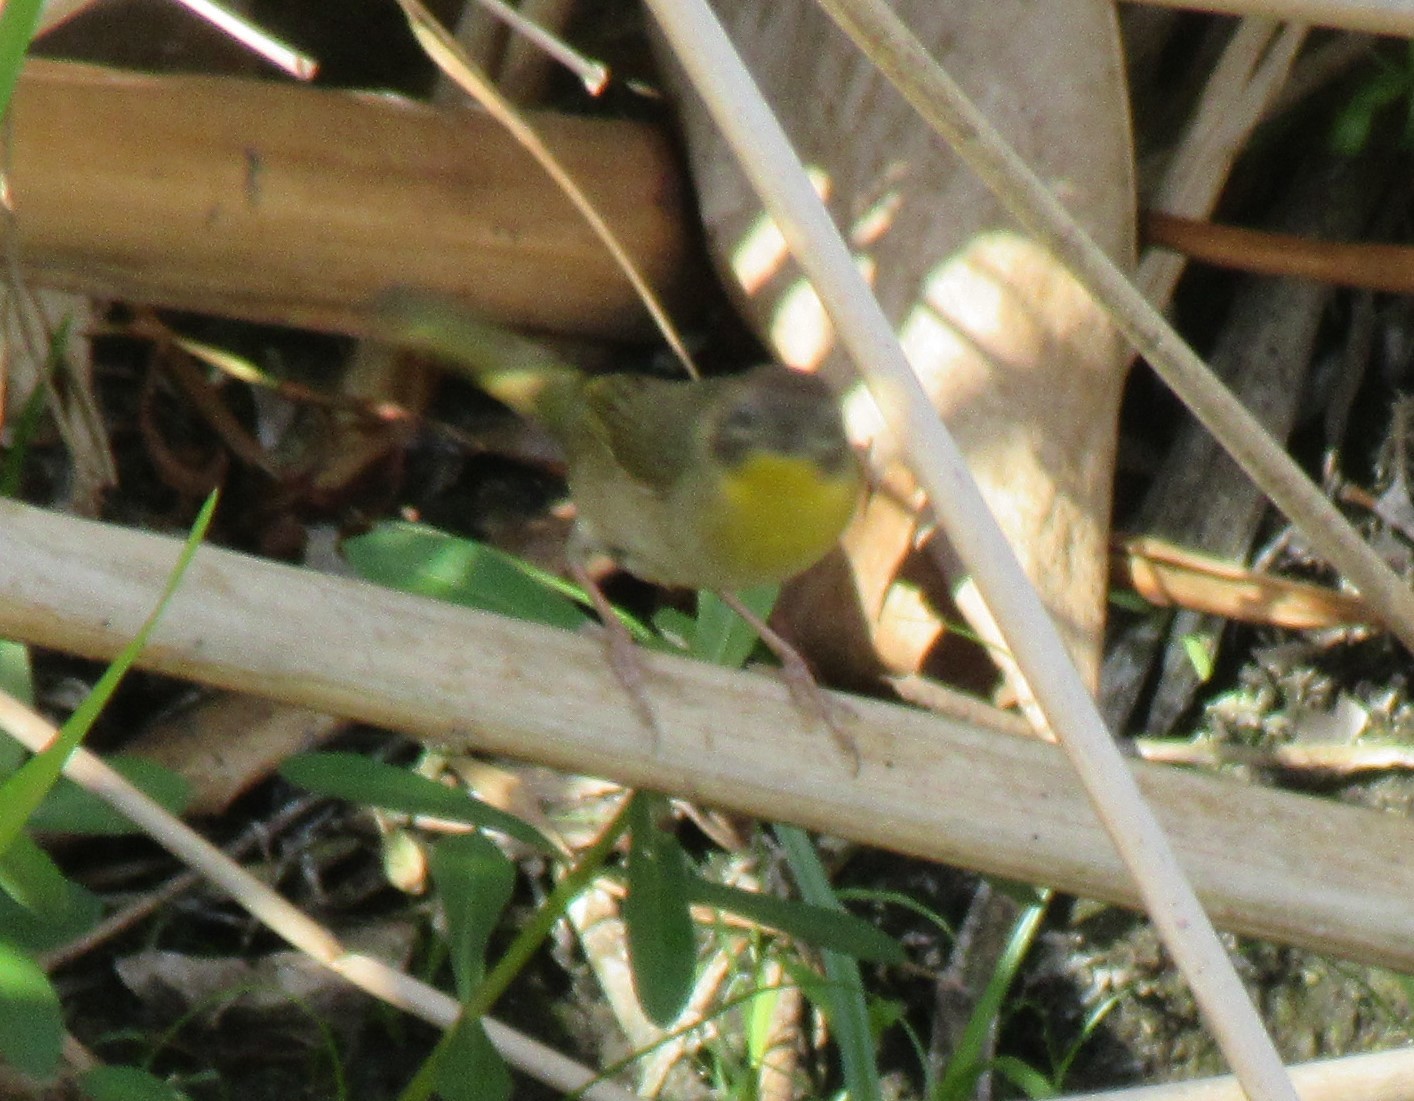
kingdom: Animalia
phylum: Chordata
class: Aves
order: Passeriformes
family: Parulidae
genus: Geothlypis
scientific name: Geothlypis trichas
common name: Common yellowthroat
